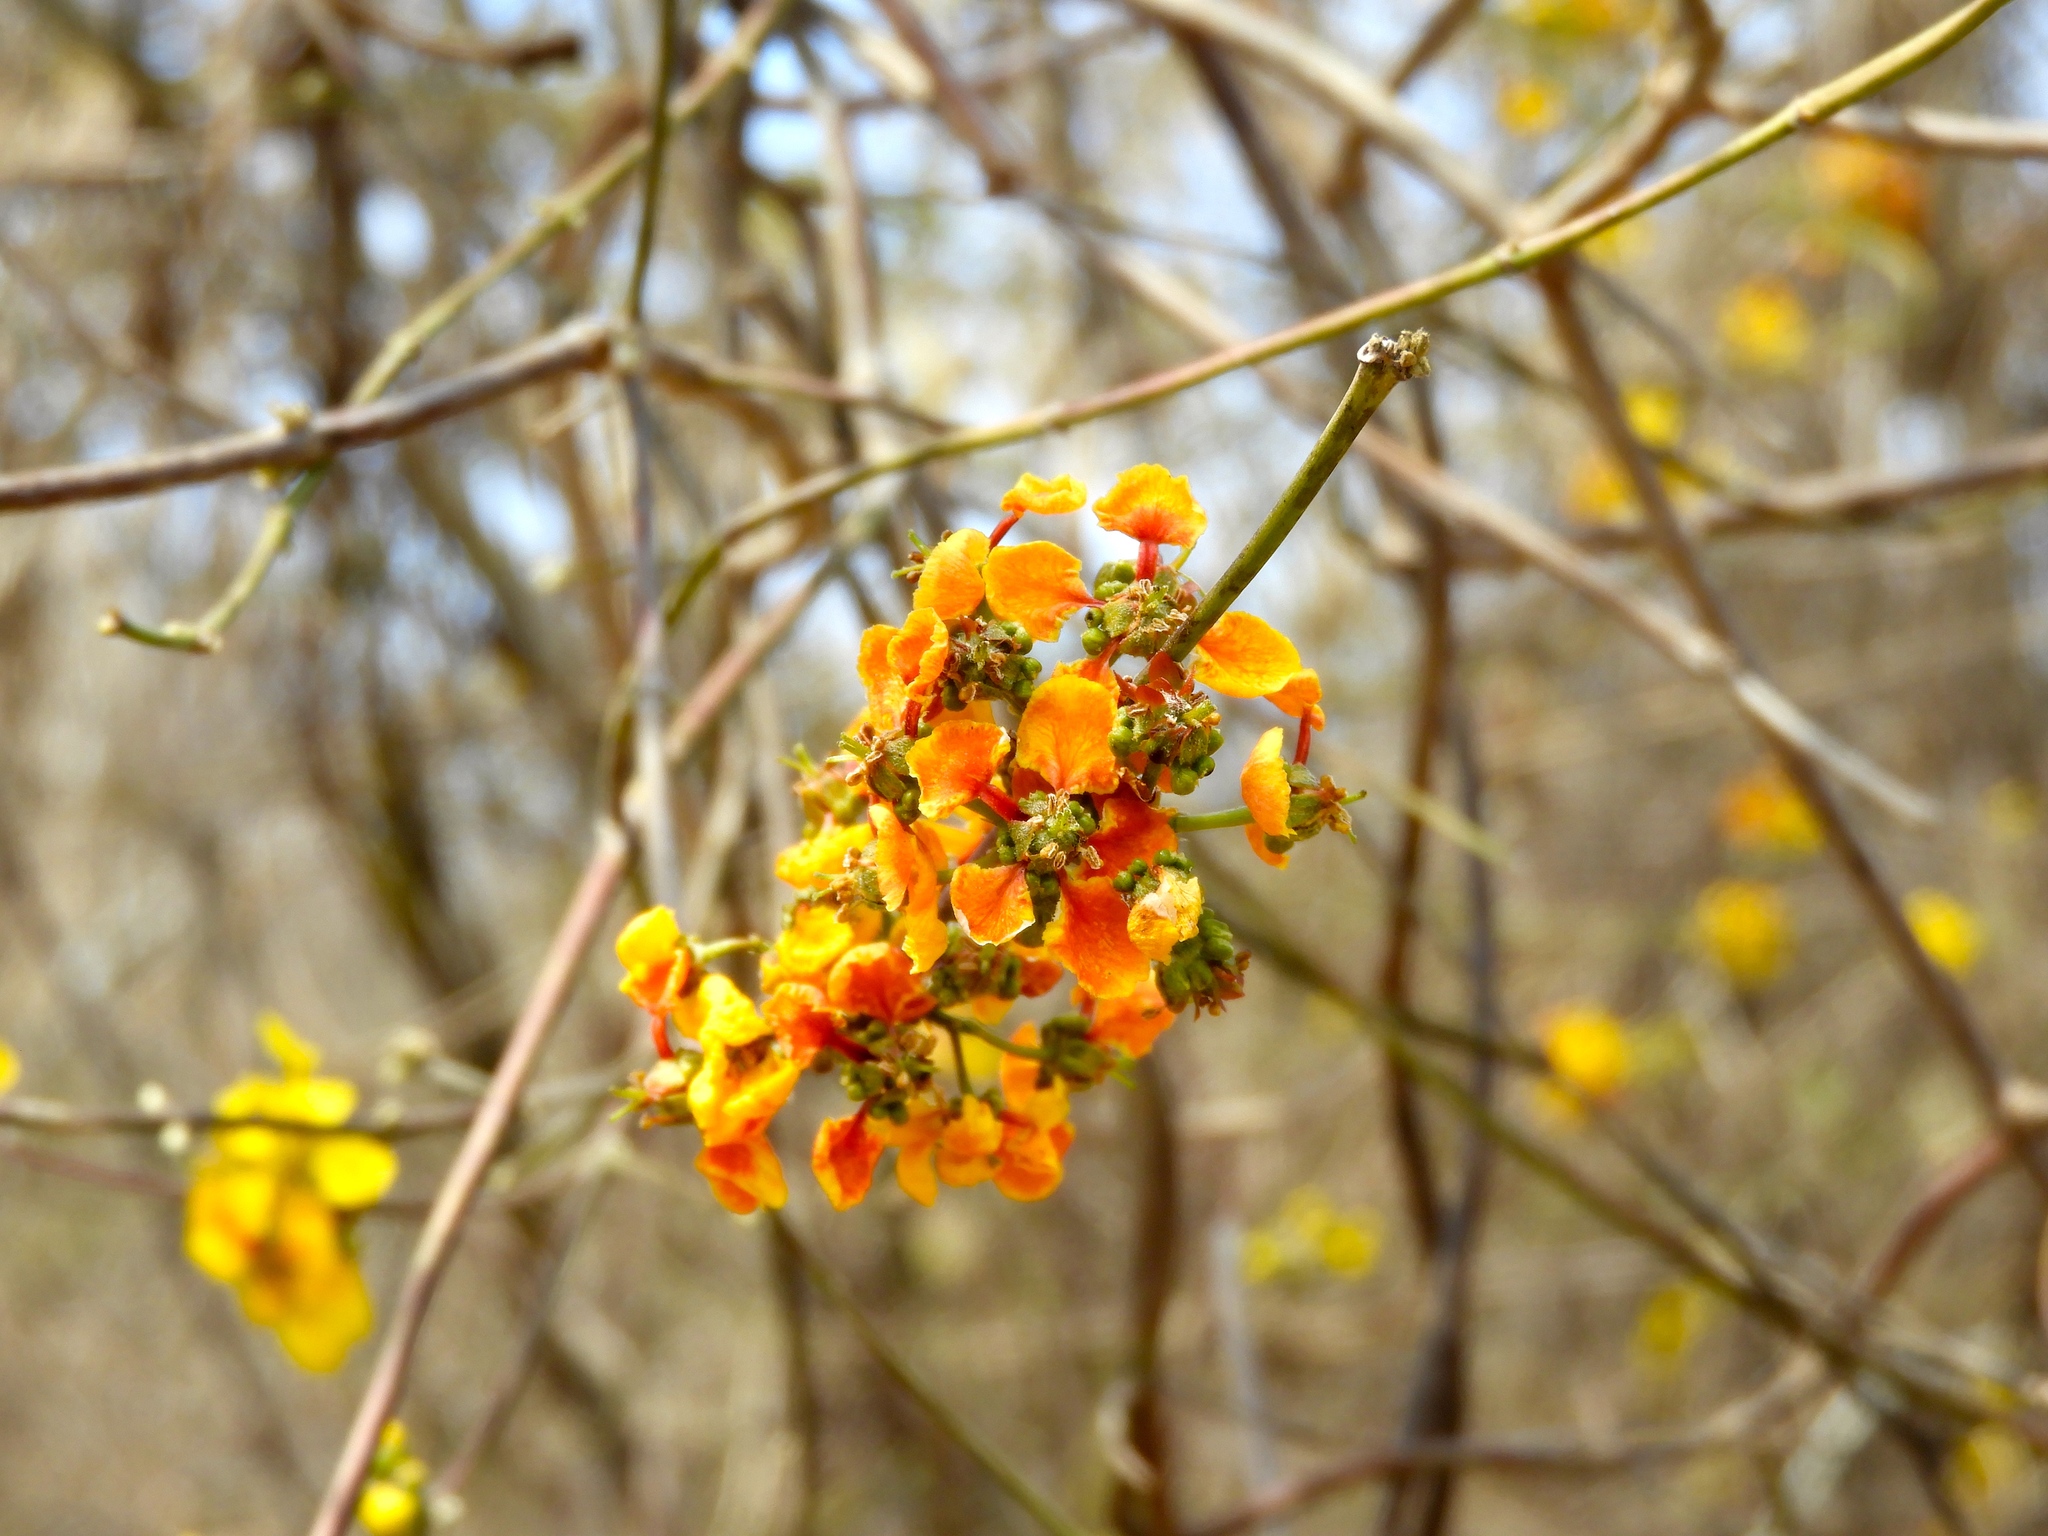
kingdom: Plantae
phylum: Tracheophyta
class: Magnoliopsida
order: Malpighiales
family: Malpighiaceae
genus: Tetrapterys
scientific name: Tetrapterys mexicana
